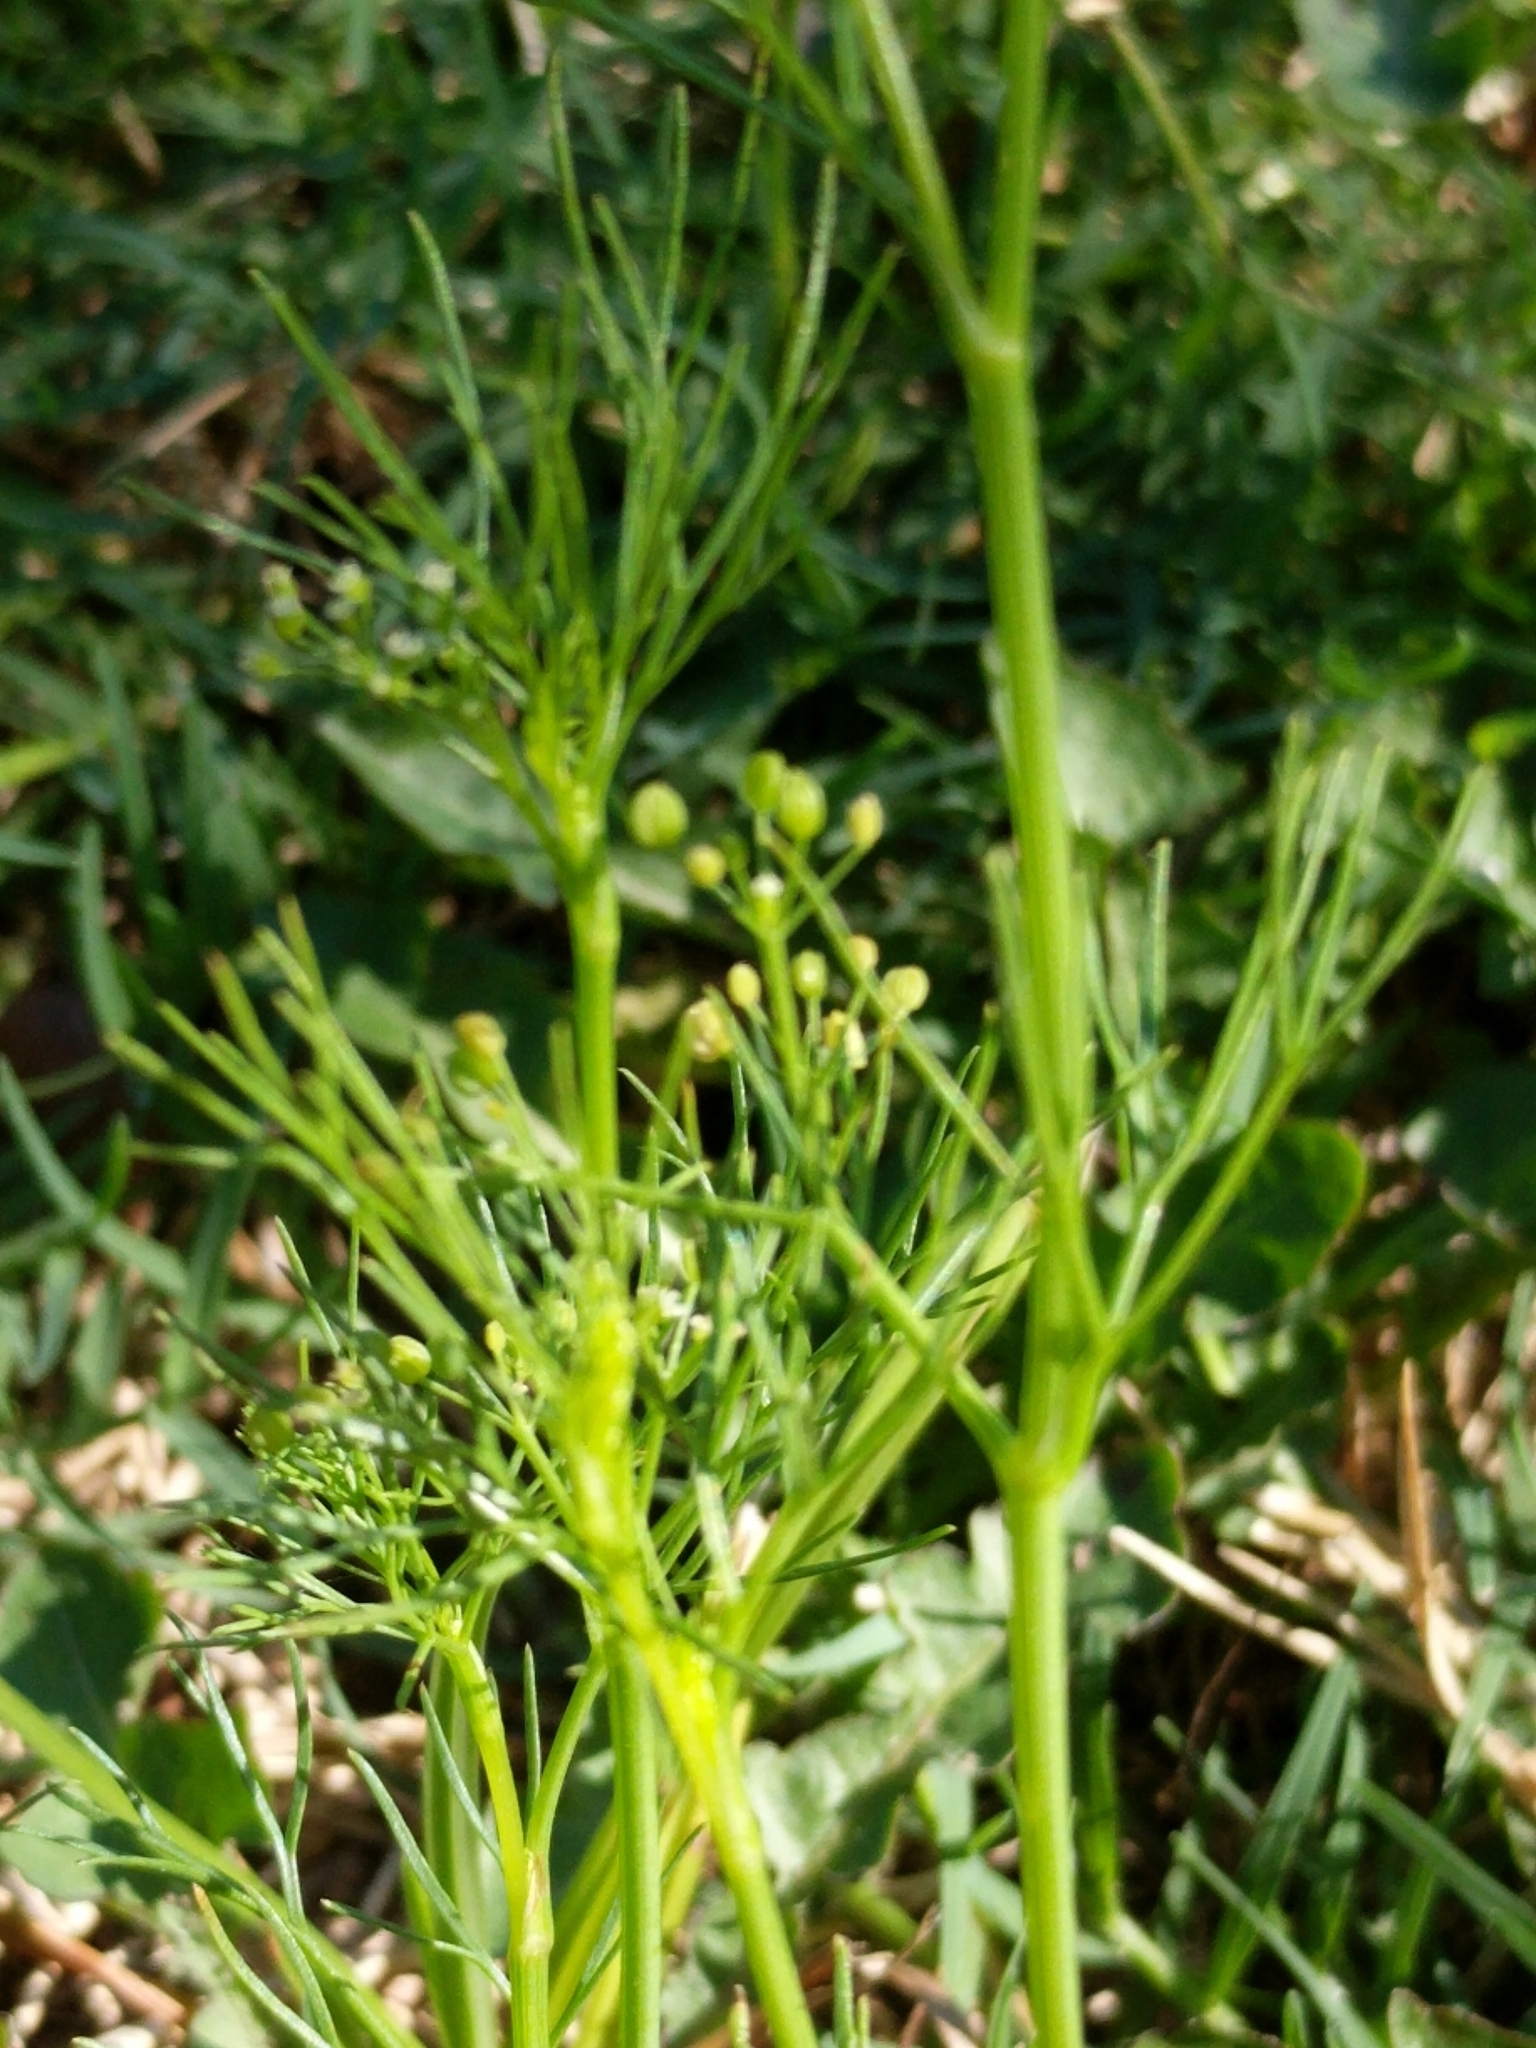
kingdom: Plantae
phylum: Tracheophyta
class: Magnoliopsida
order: Apiales
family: Apiaceae
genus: Cyclospermum
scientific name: Cyclospermum leptophyllum
